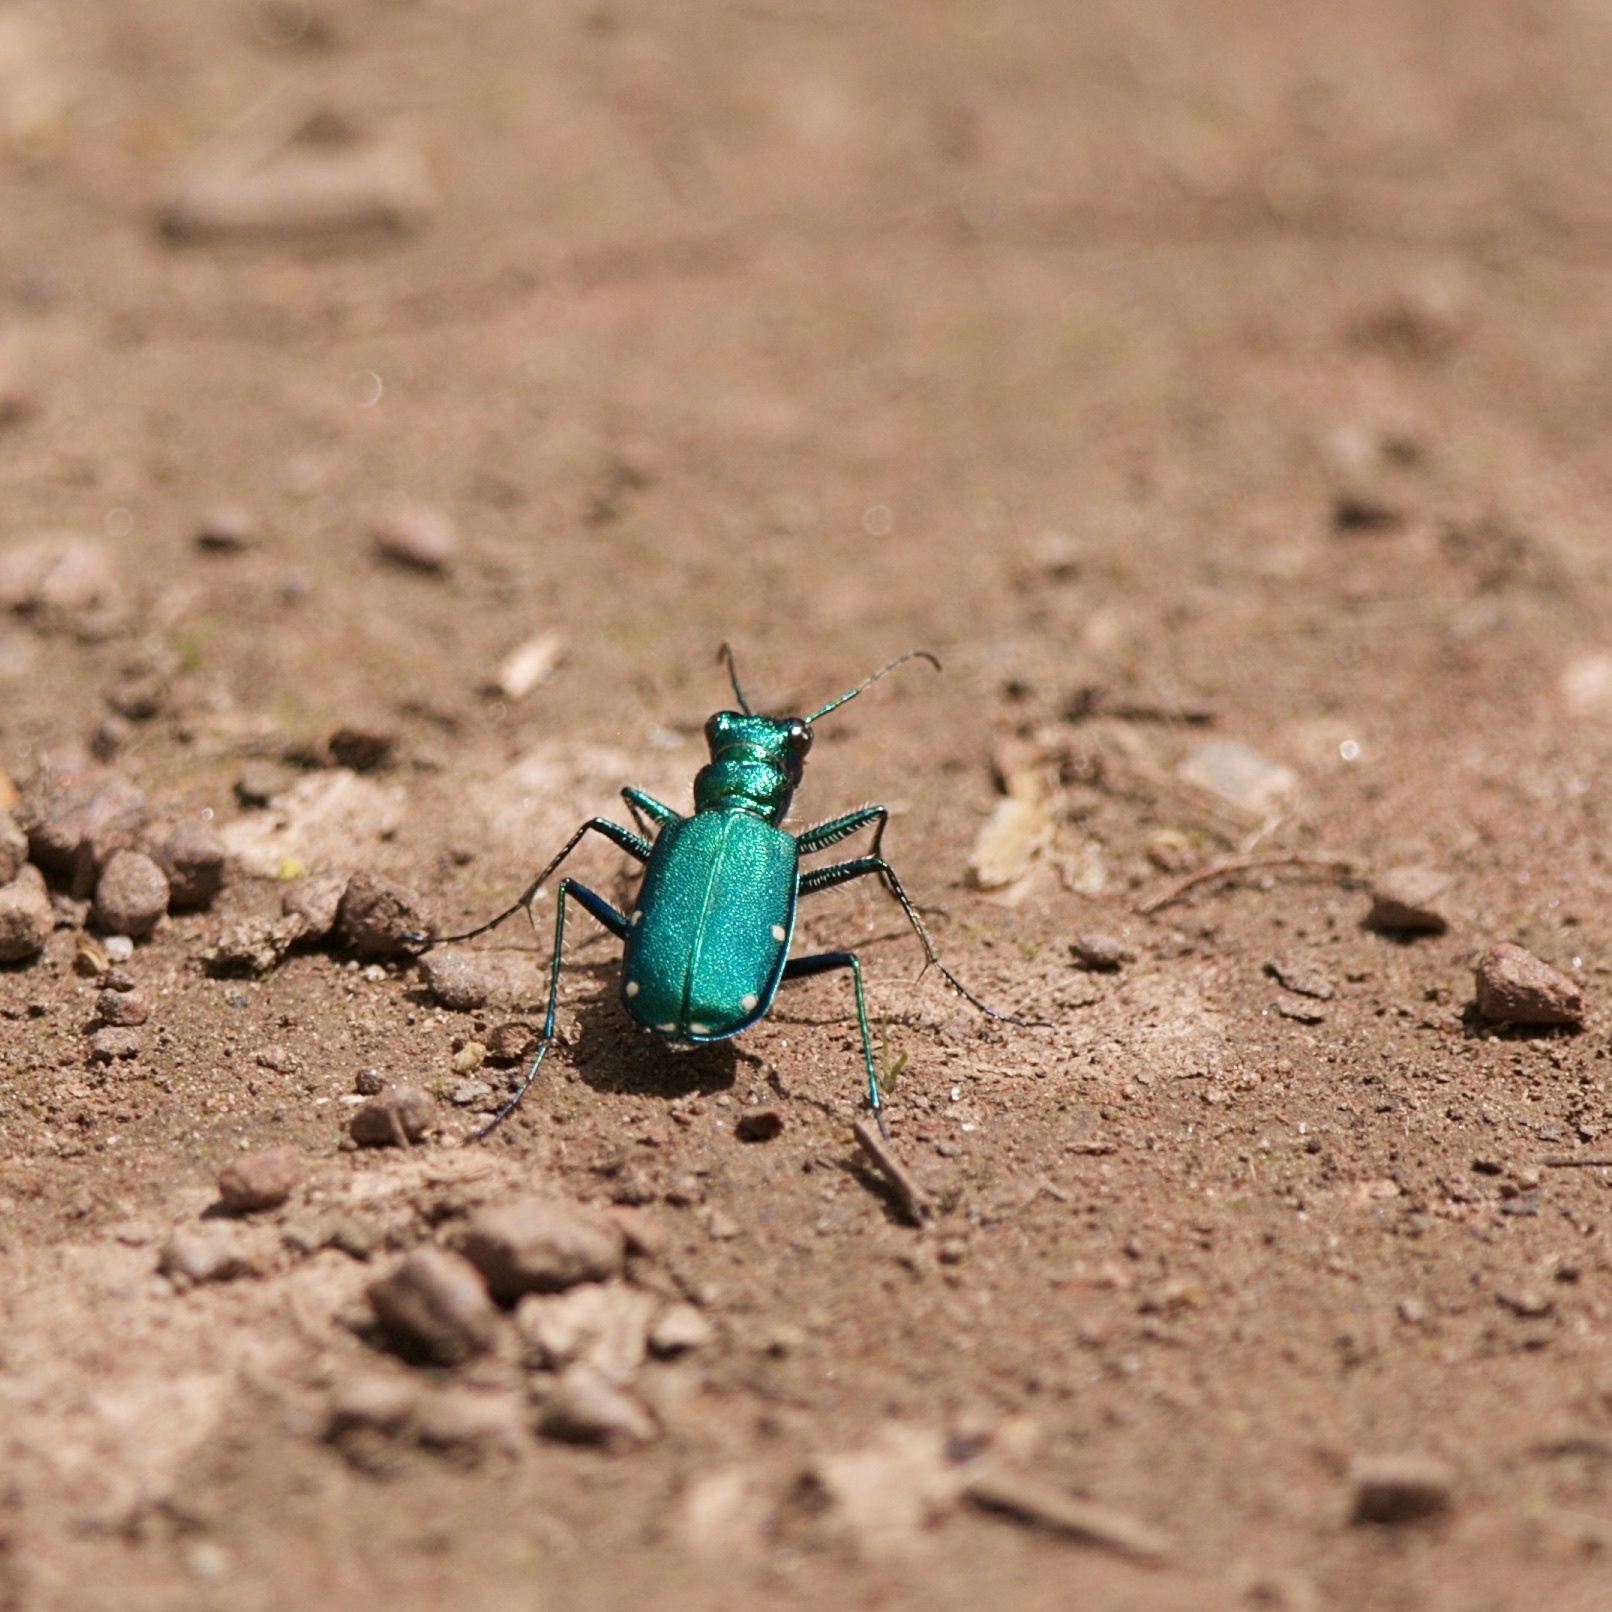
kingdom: Animalia
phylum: Arthropoda
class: Insecta
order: Coleoptera
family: Carabidae
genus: Cicindela
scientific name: Cicindela sexguttata
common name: Six-spotted tiger beetle
